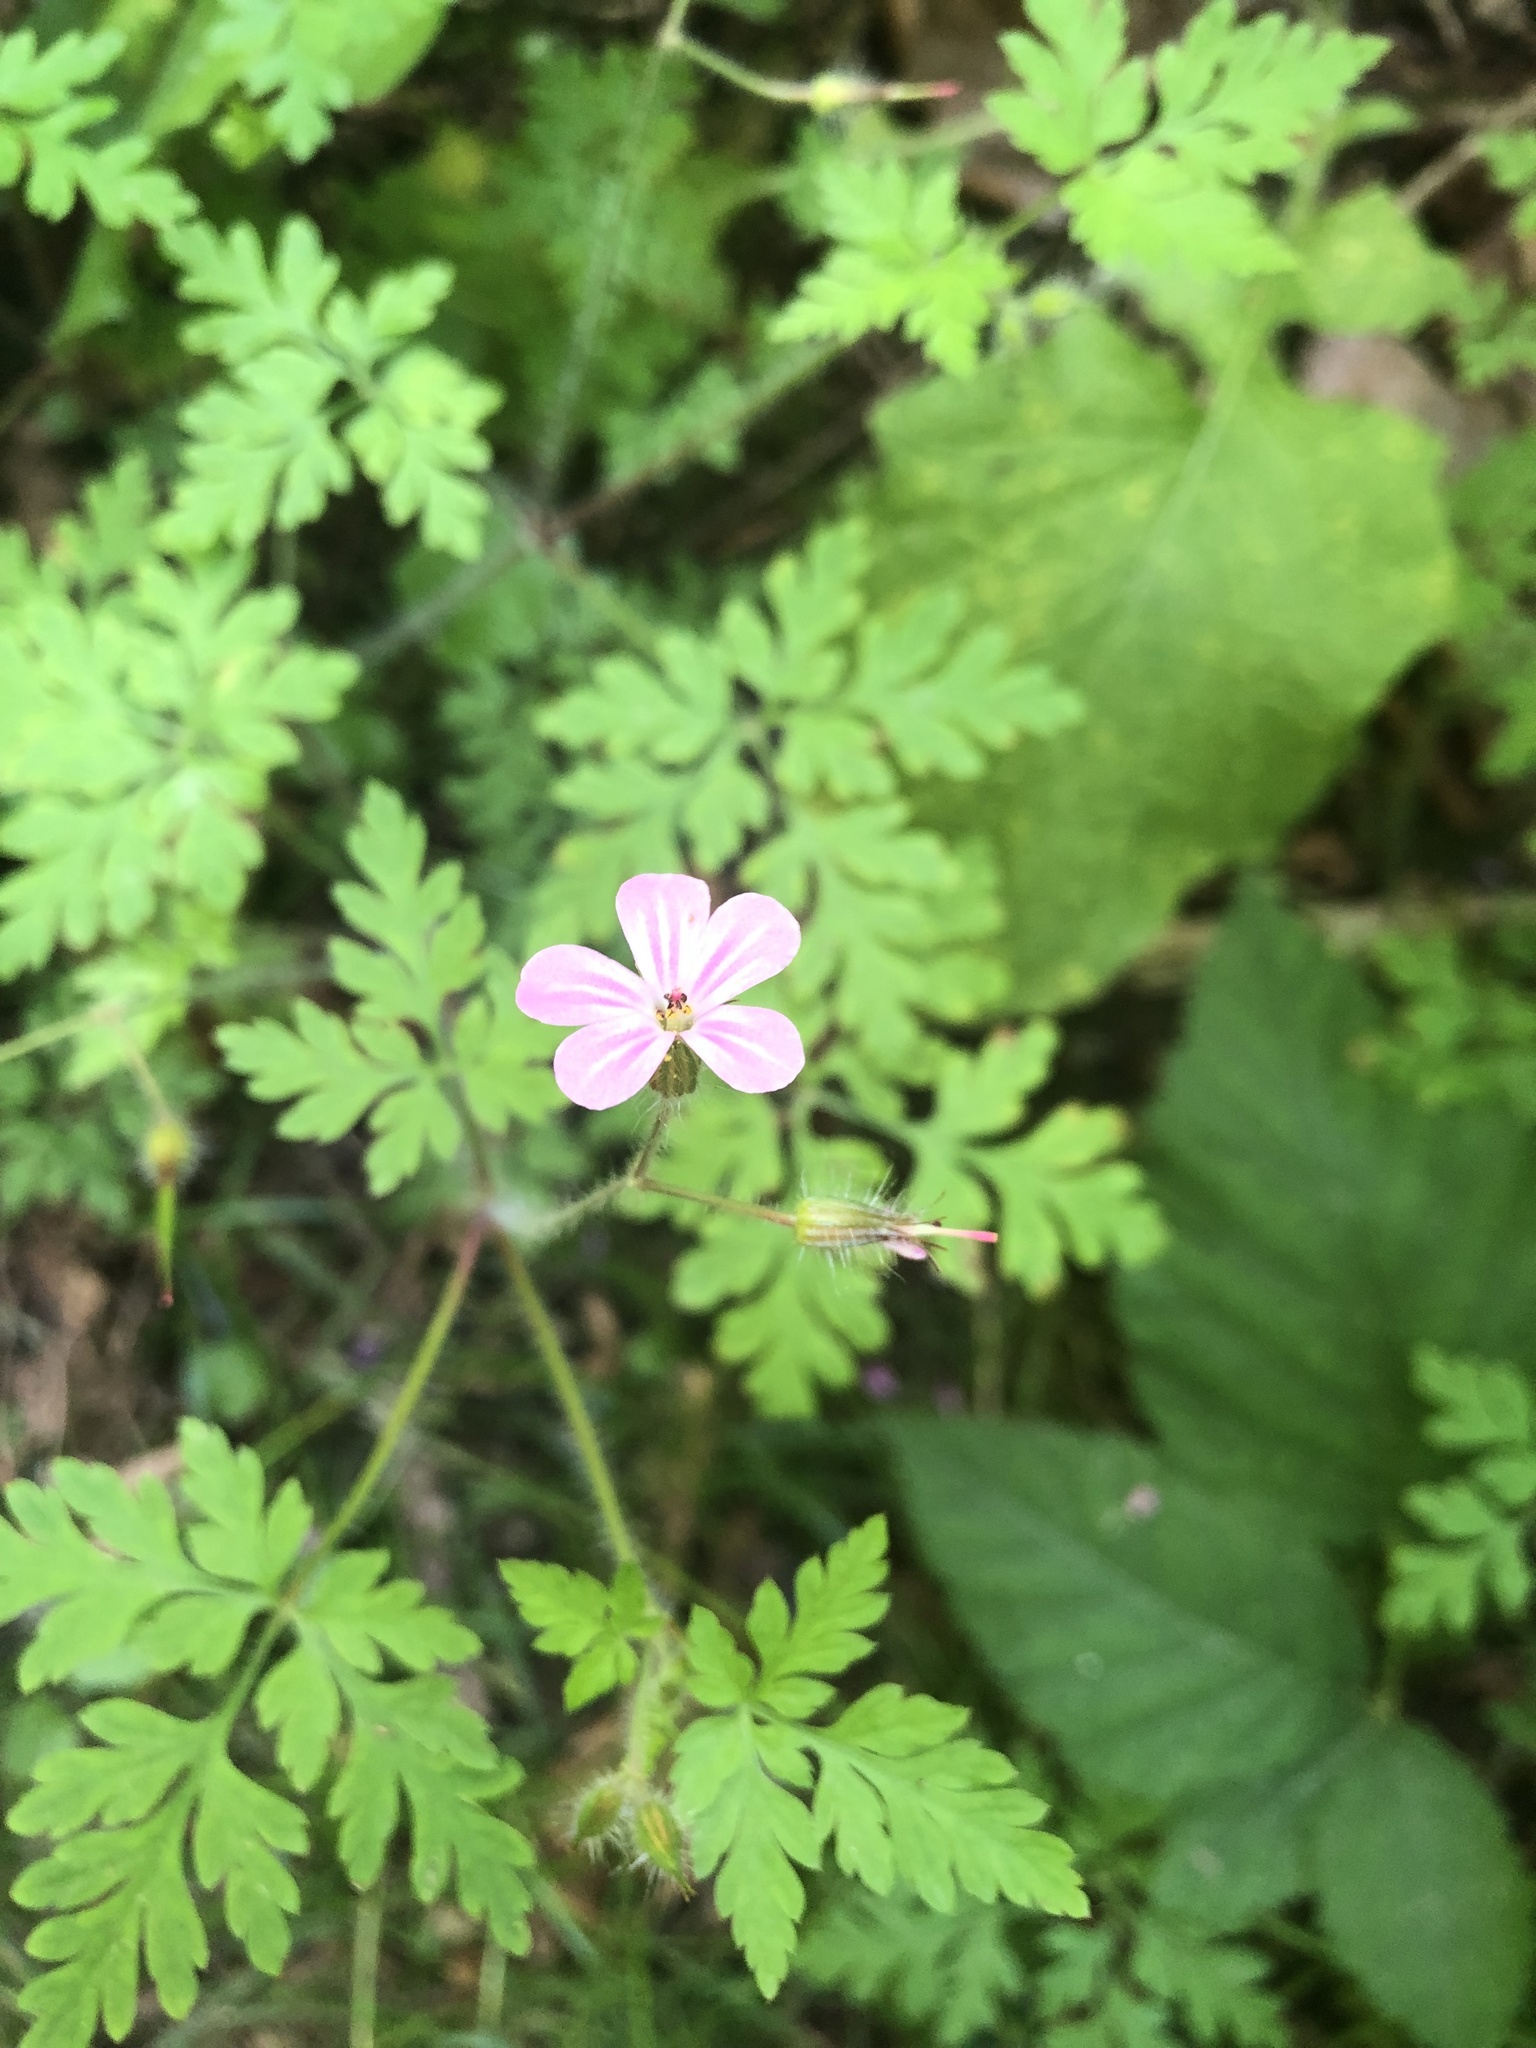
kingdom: Plantae
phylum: Tracheophyta
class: Magnoliopsida
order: Geraniales
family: Geraniaceae
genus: Geranium
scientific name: Geranium robertianum
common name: Herb-robert
